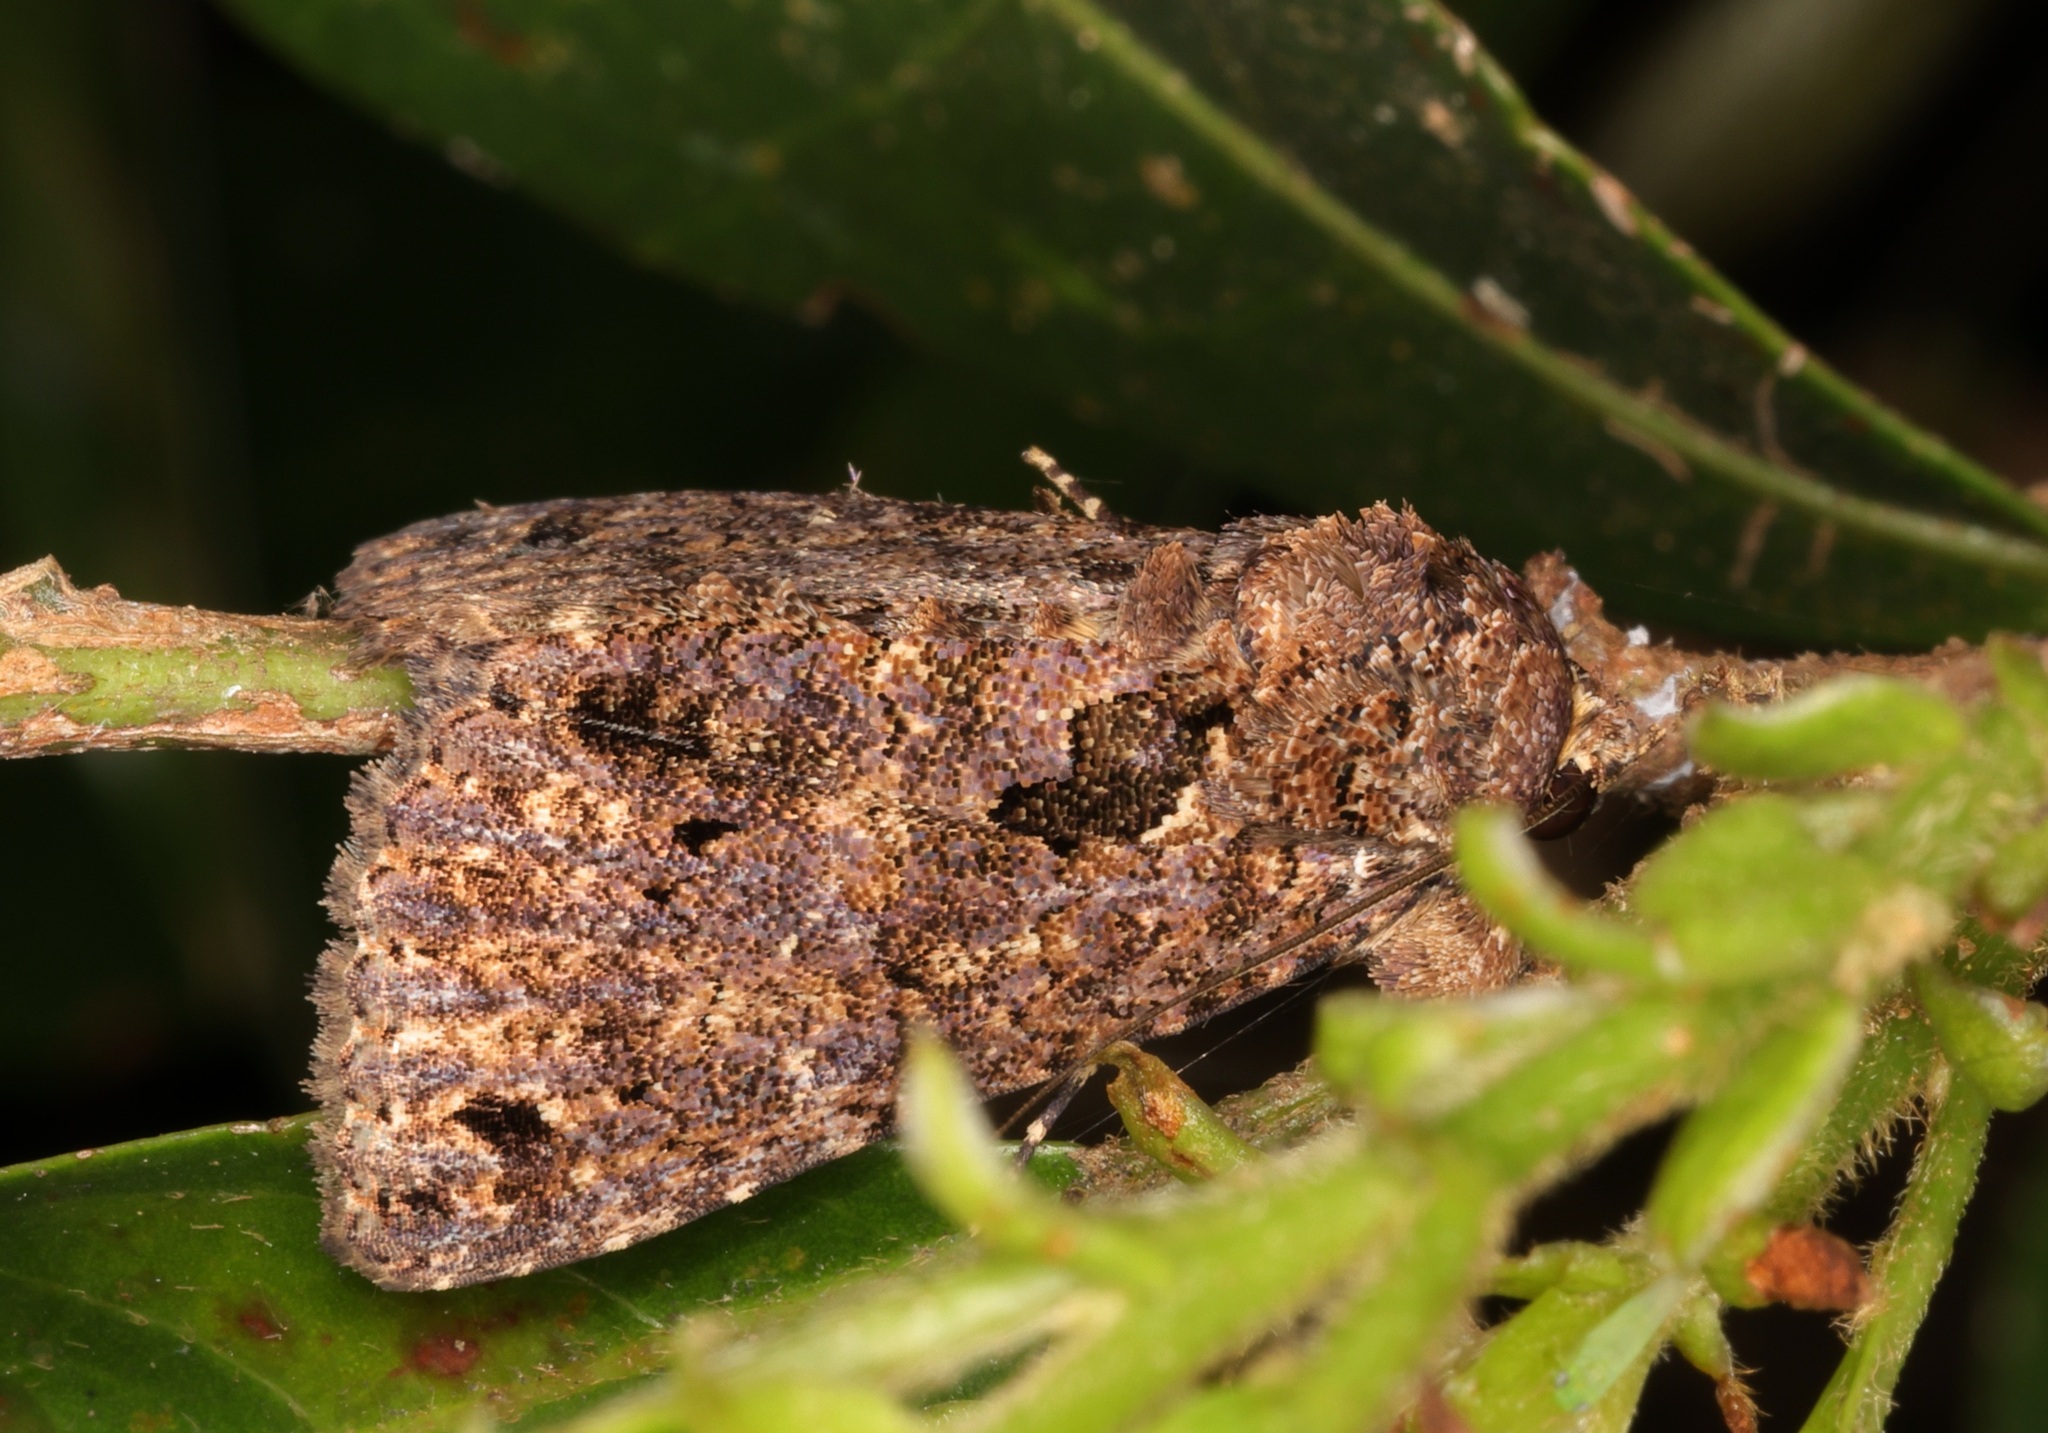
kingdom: Animalia
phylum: Arthropoda
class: Insecta
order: Lepidoptera
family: Erebidae
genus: Erygia
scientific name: Erygia apicalis
